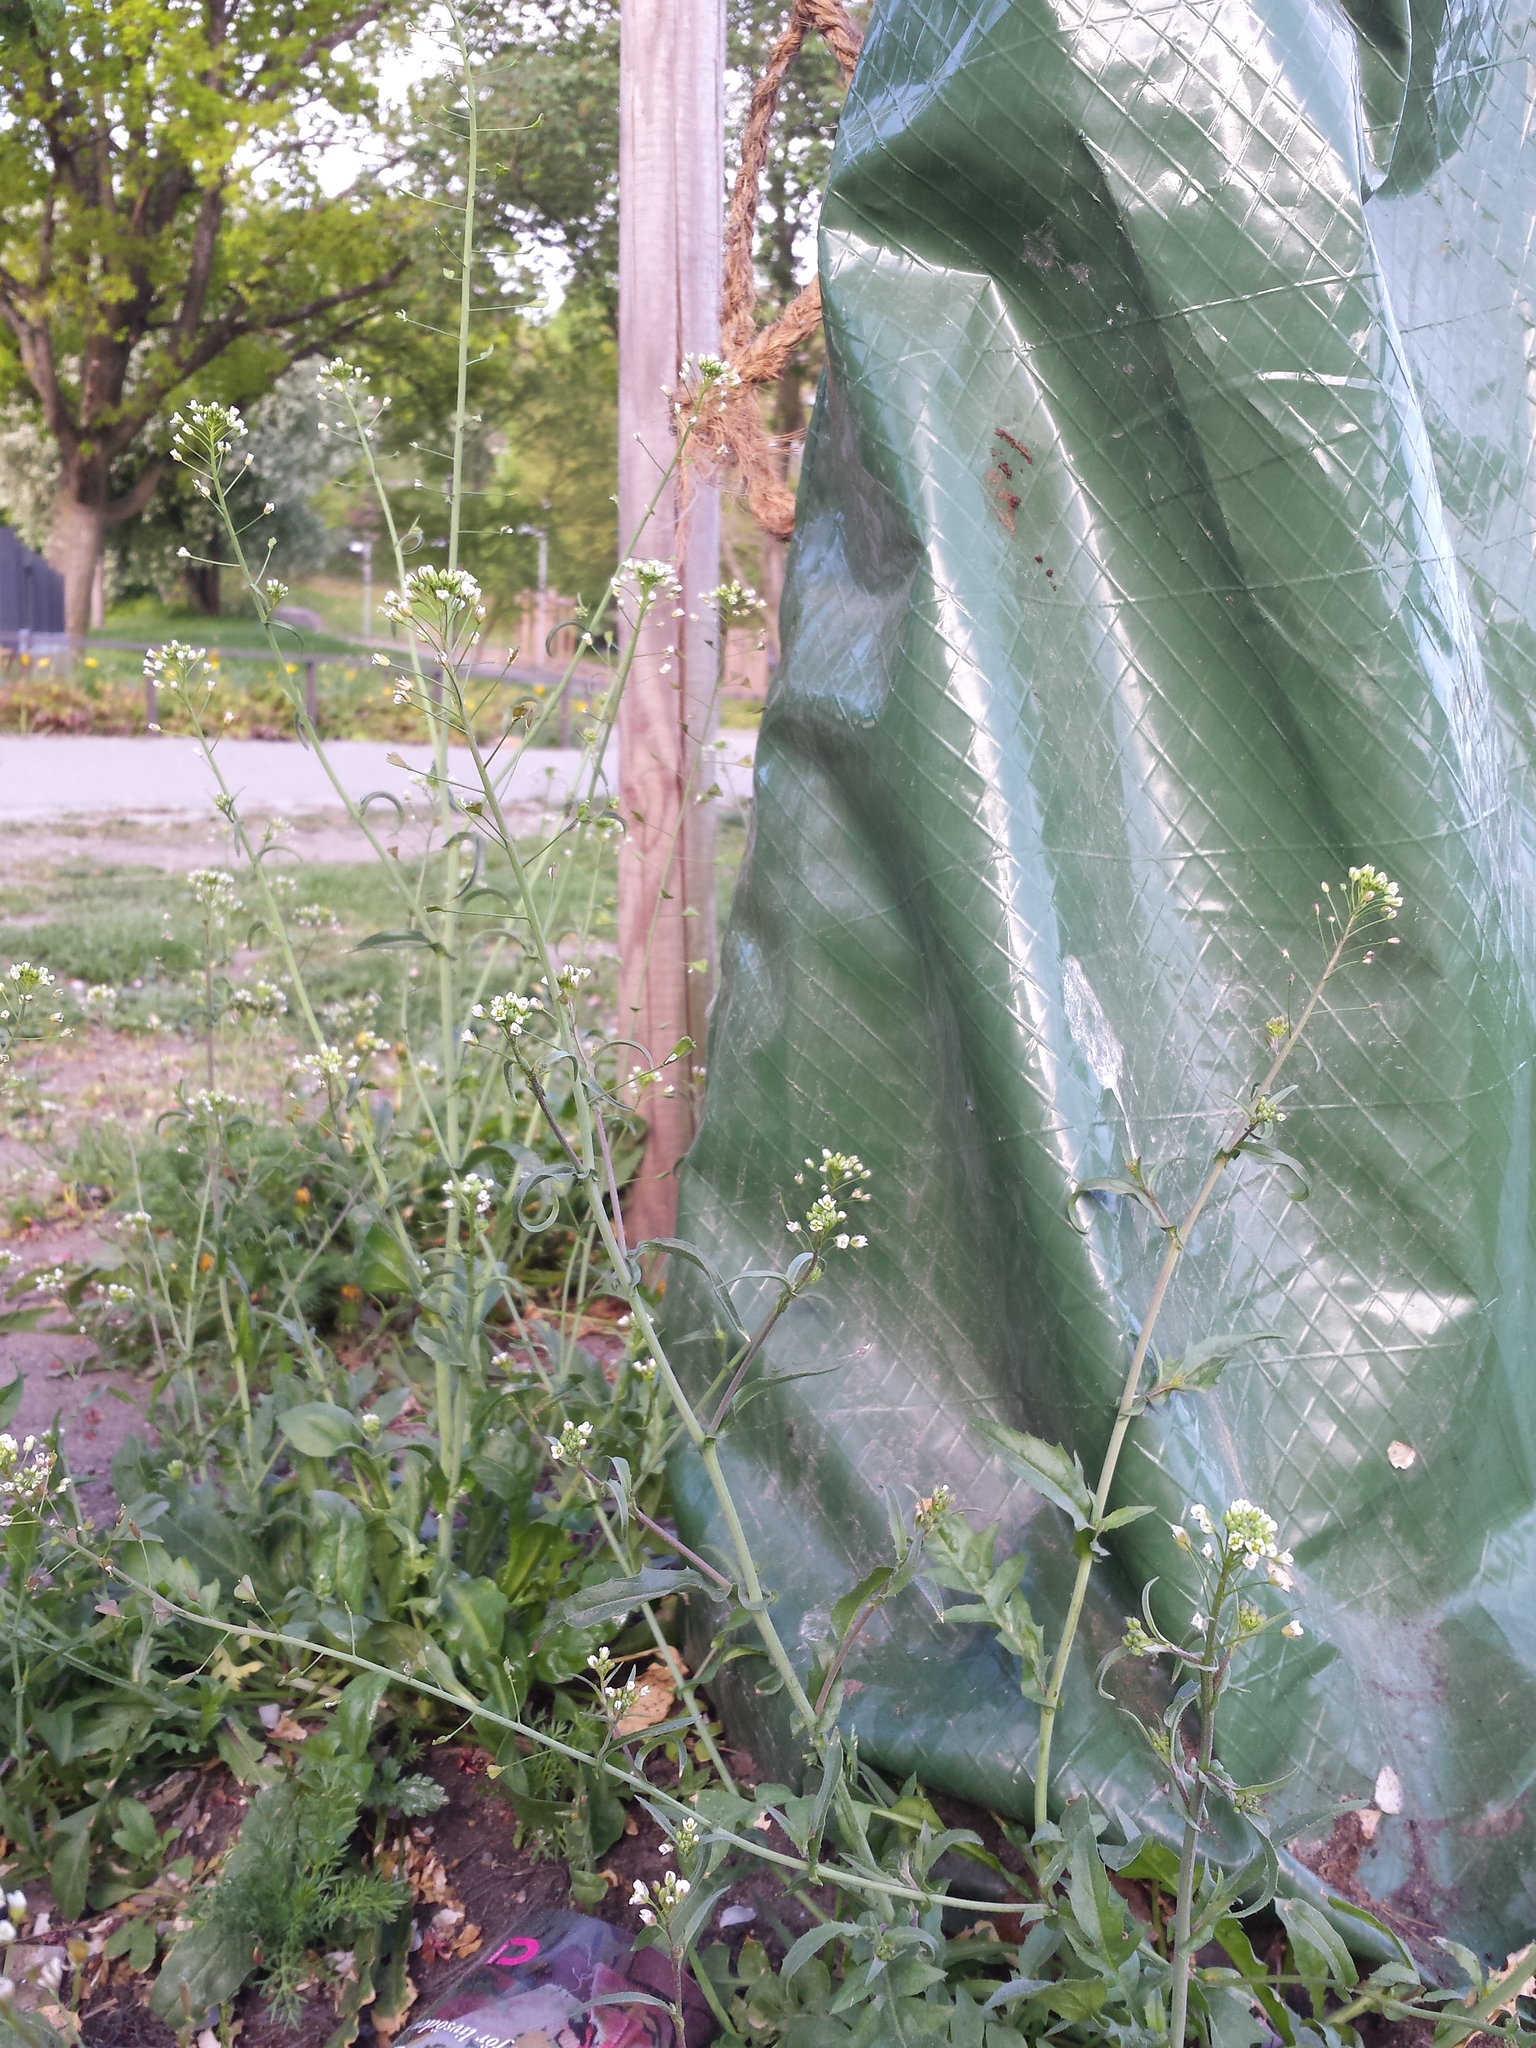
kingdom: Plantae
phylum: Tracheophyta
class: Magnoliopsida
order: Brassicales
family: Brassicaceae
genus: Capsella
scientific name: Capsella bursa-pastoris
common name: Shepherd's purse
